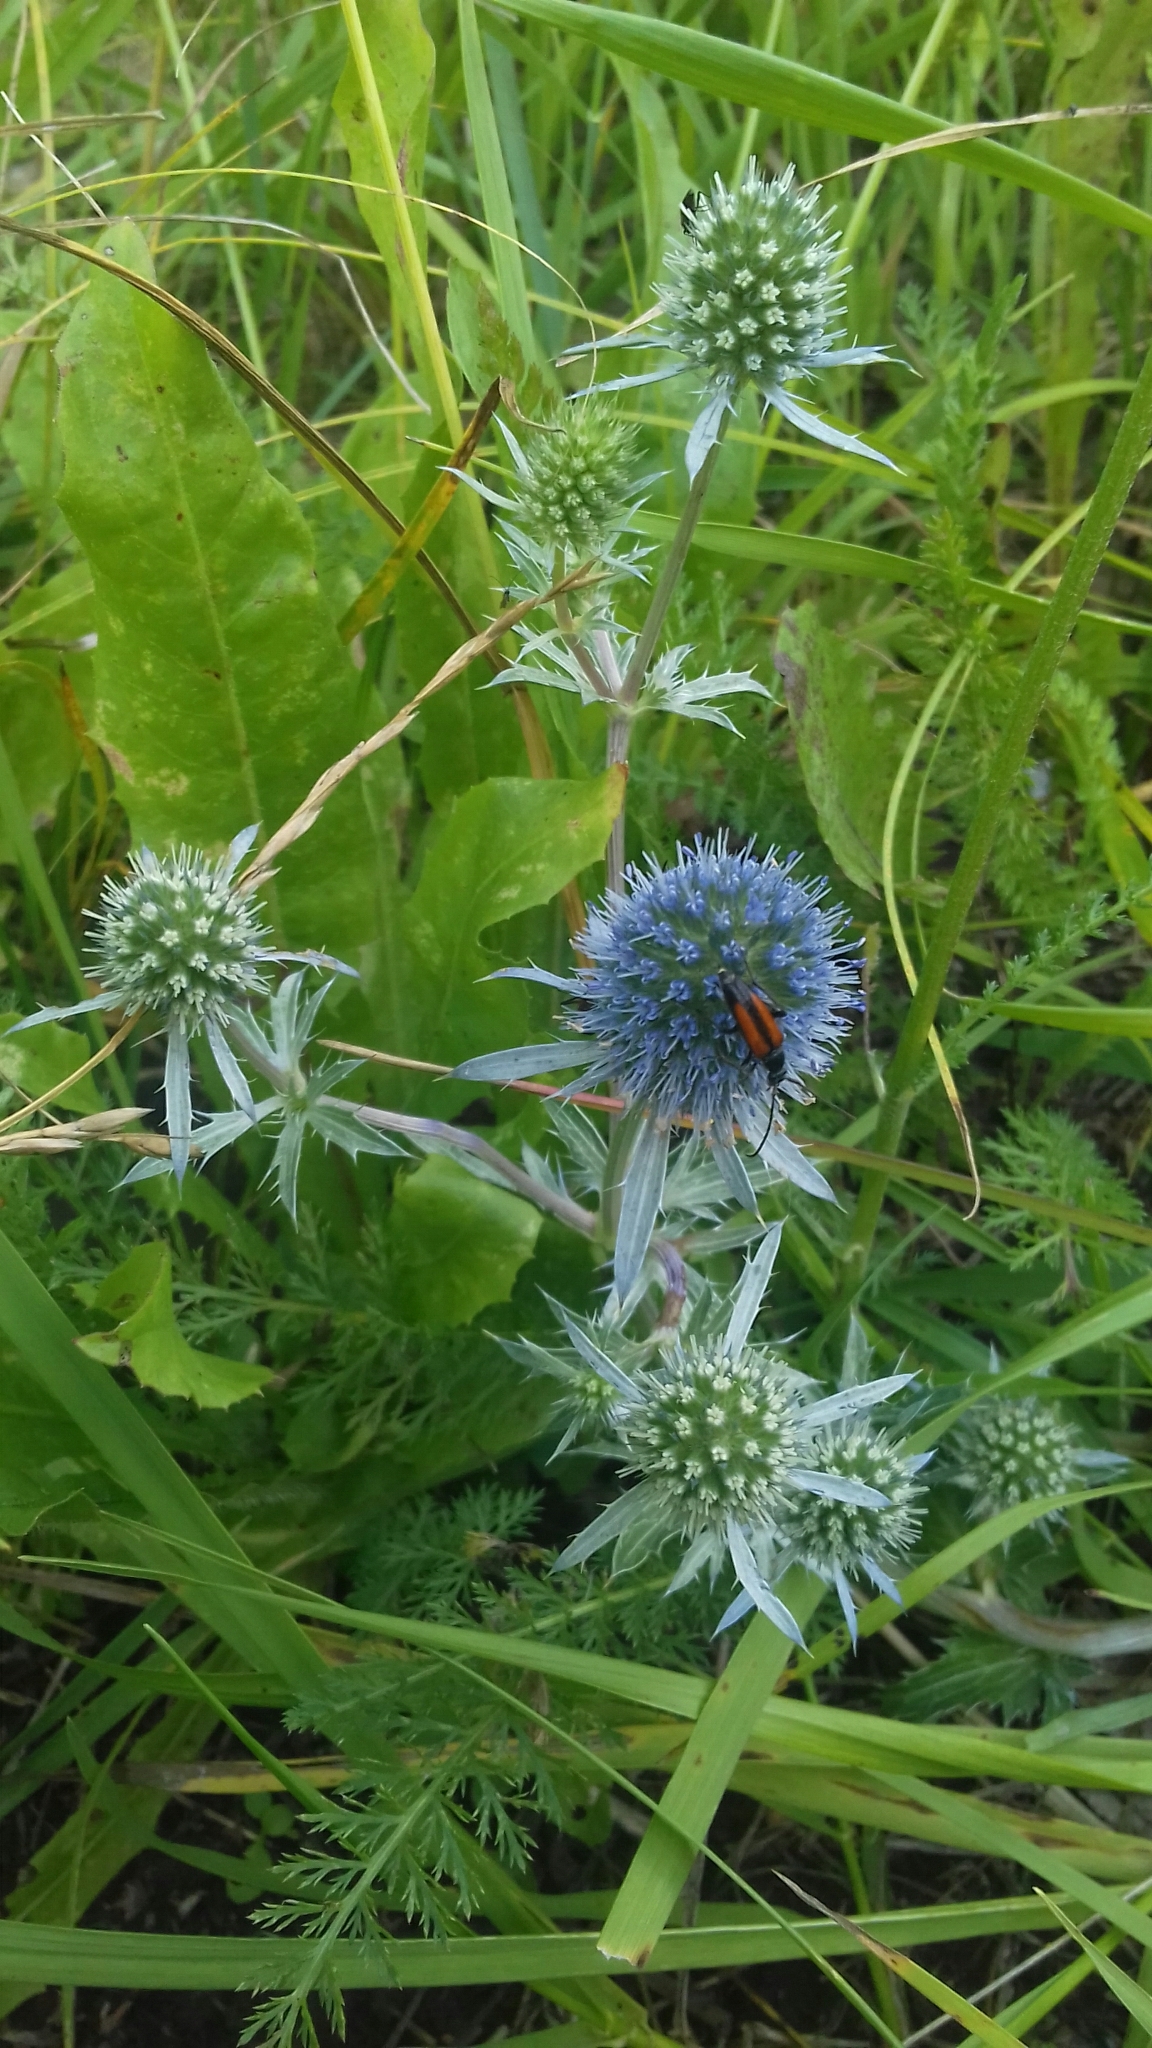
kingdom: Plantae
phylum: Tracheophyta
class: Magnoliopsida
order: Apiales
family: Apiaceae
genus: Eryngium
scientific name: Eryngium planum
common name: Blue eryngo
